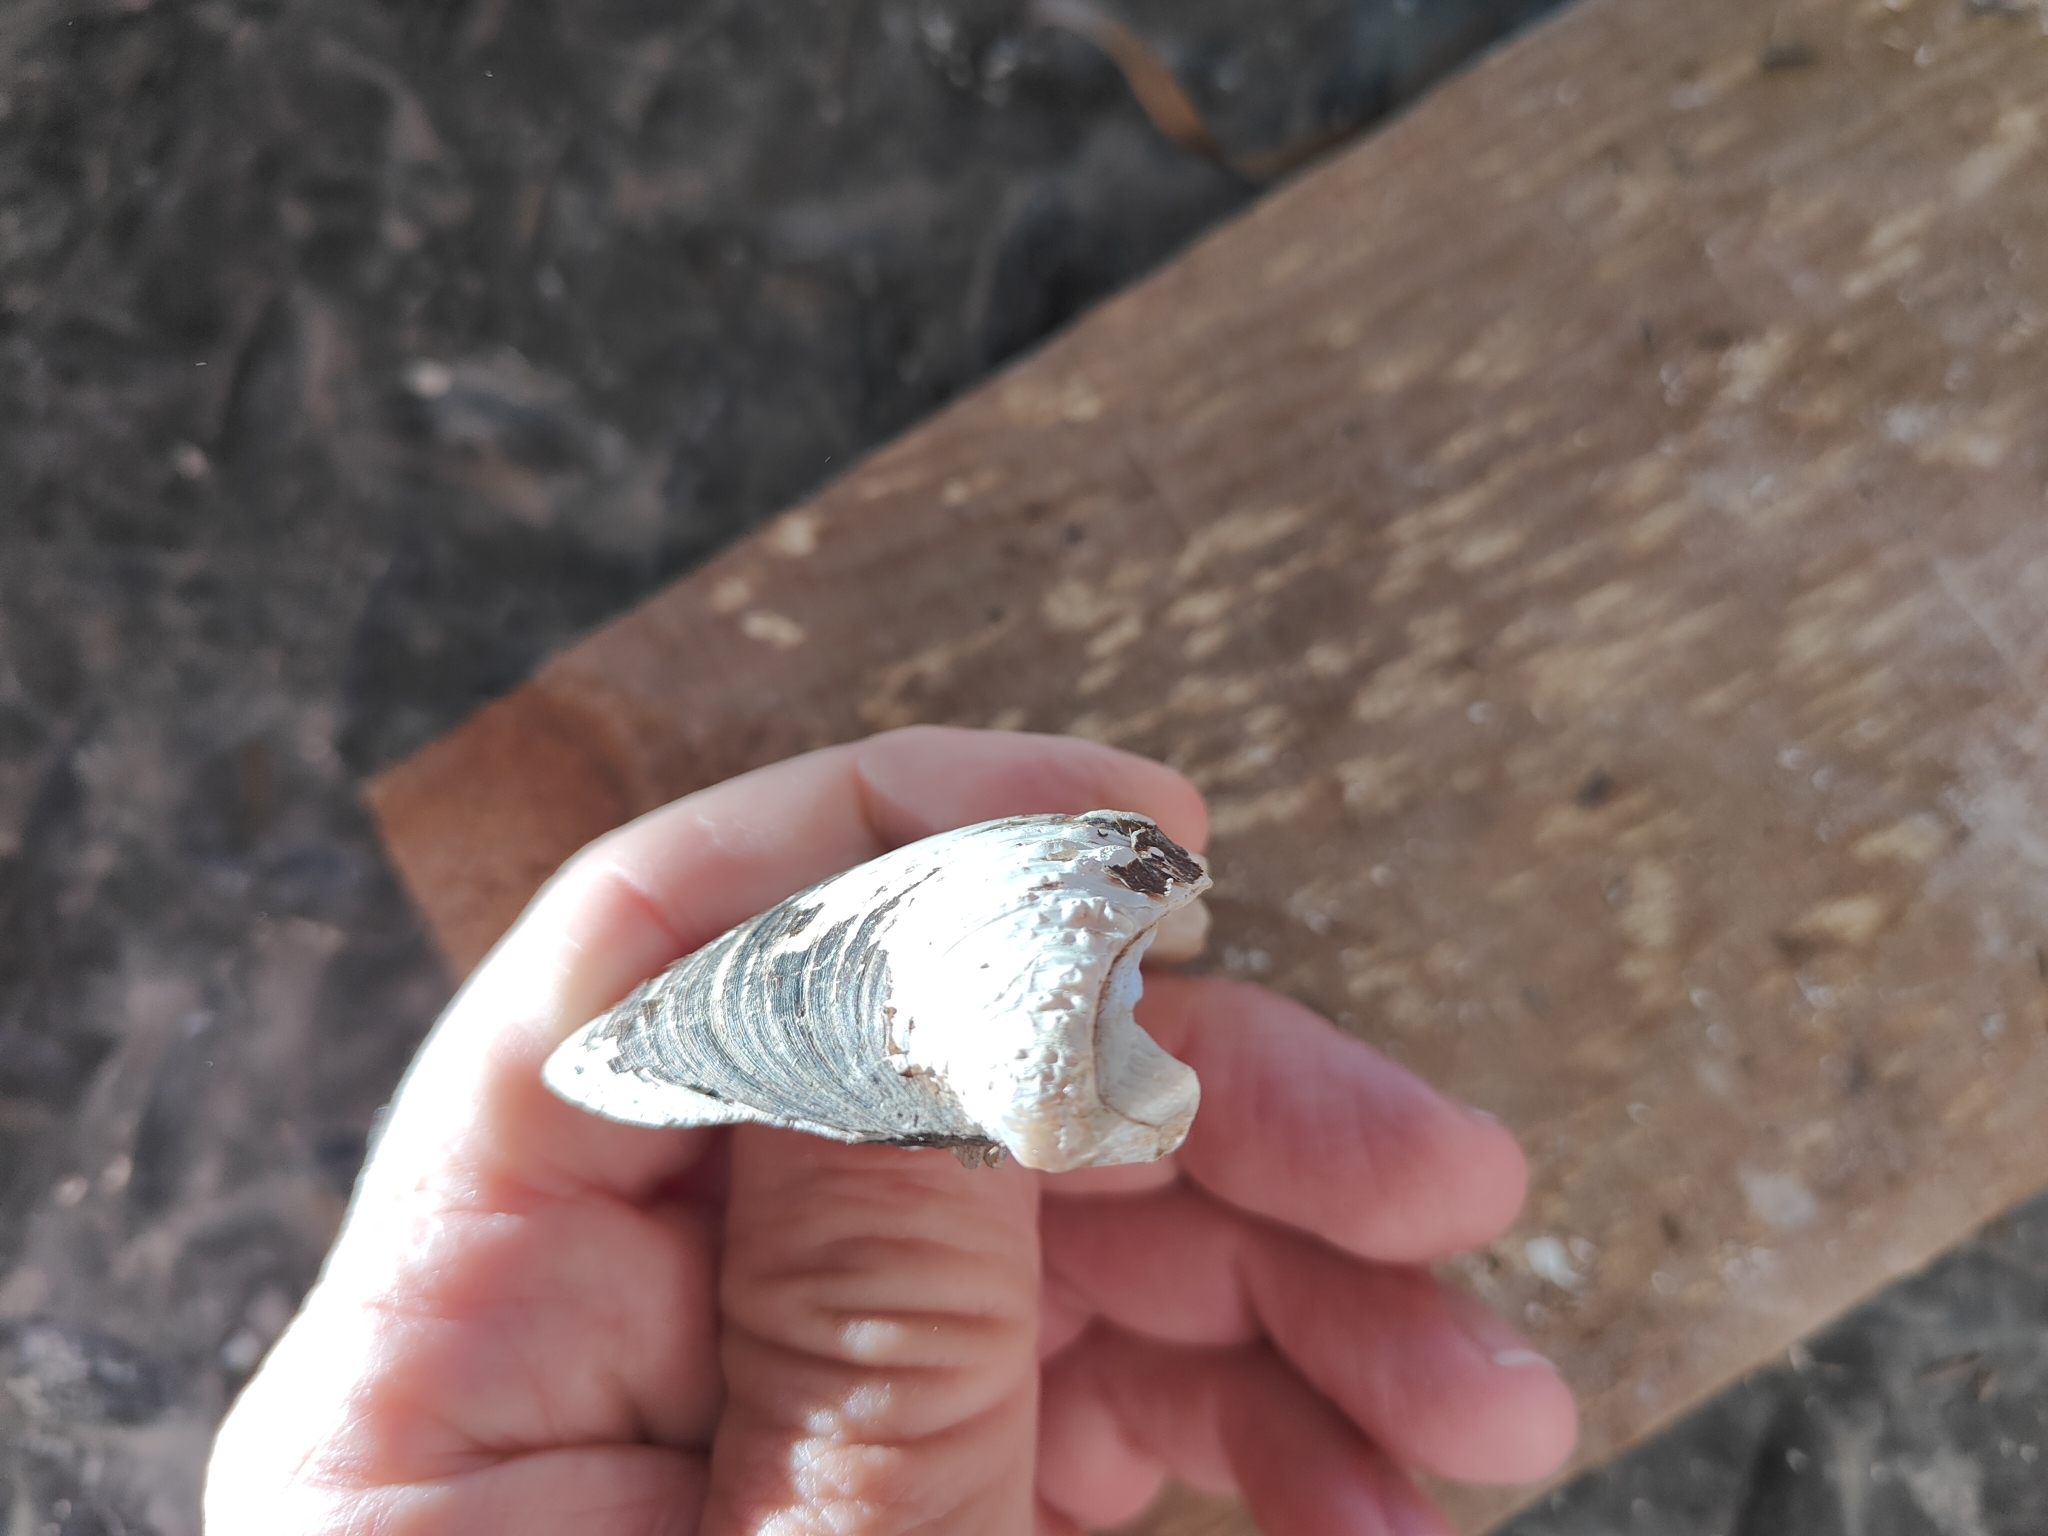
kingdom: Animalia
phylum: Mollusca
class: Bivalvia
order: Unionida
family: Unionidae
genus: Quadrula
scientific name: Quadrula quadrula
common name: Mapleleaf
